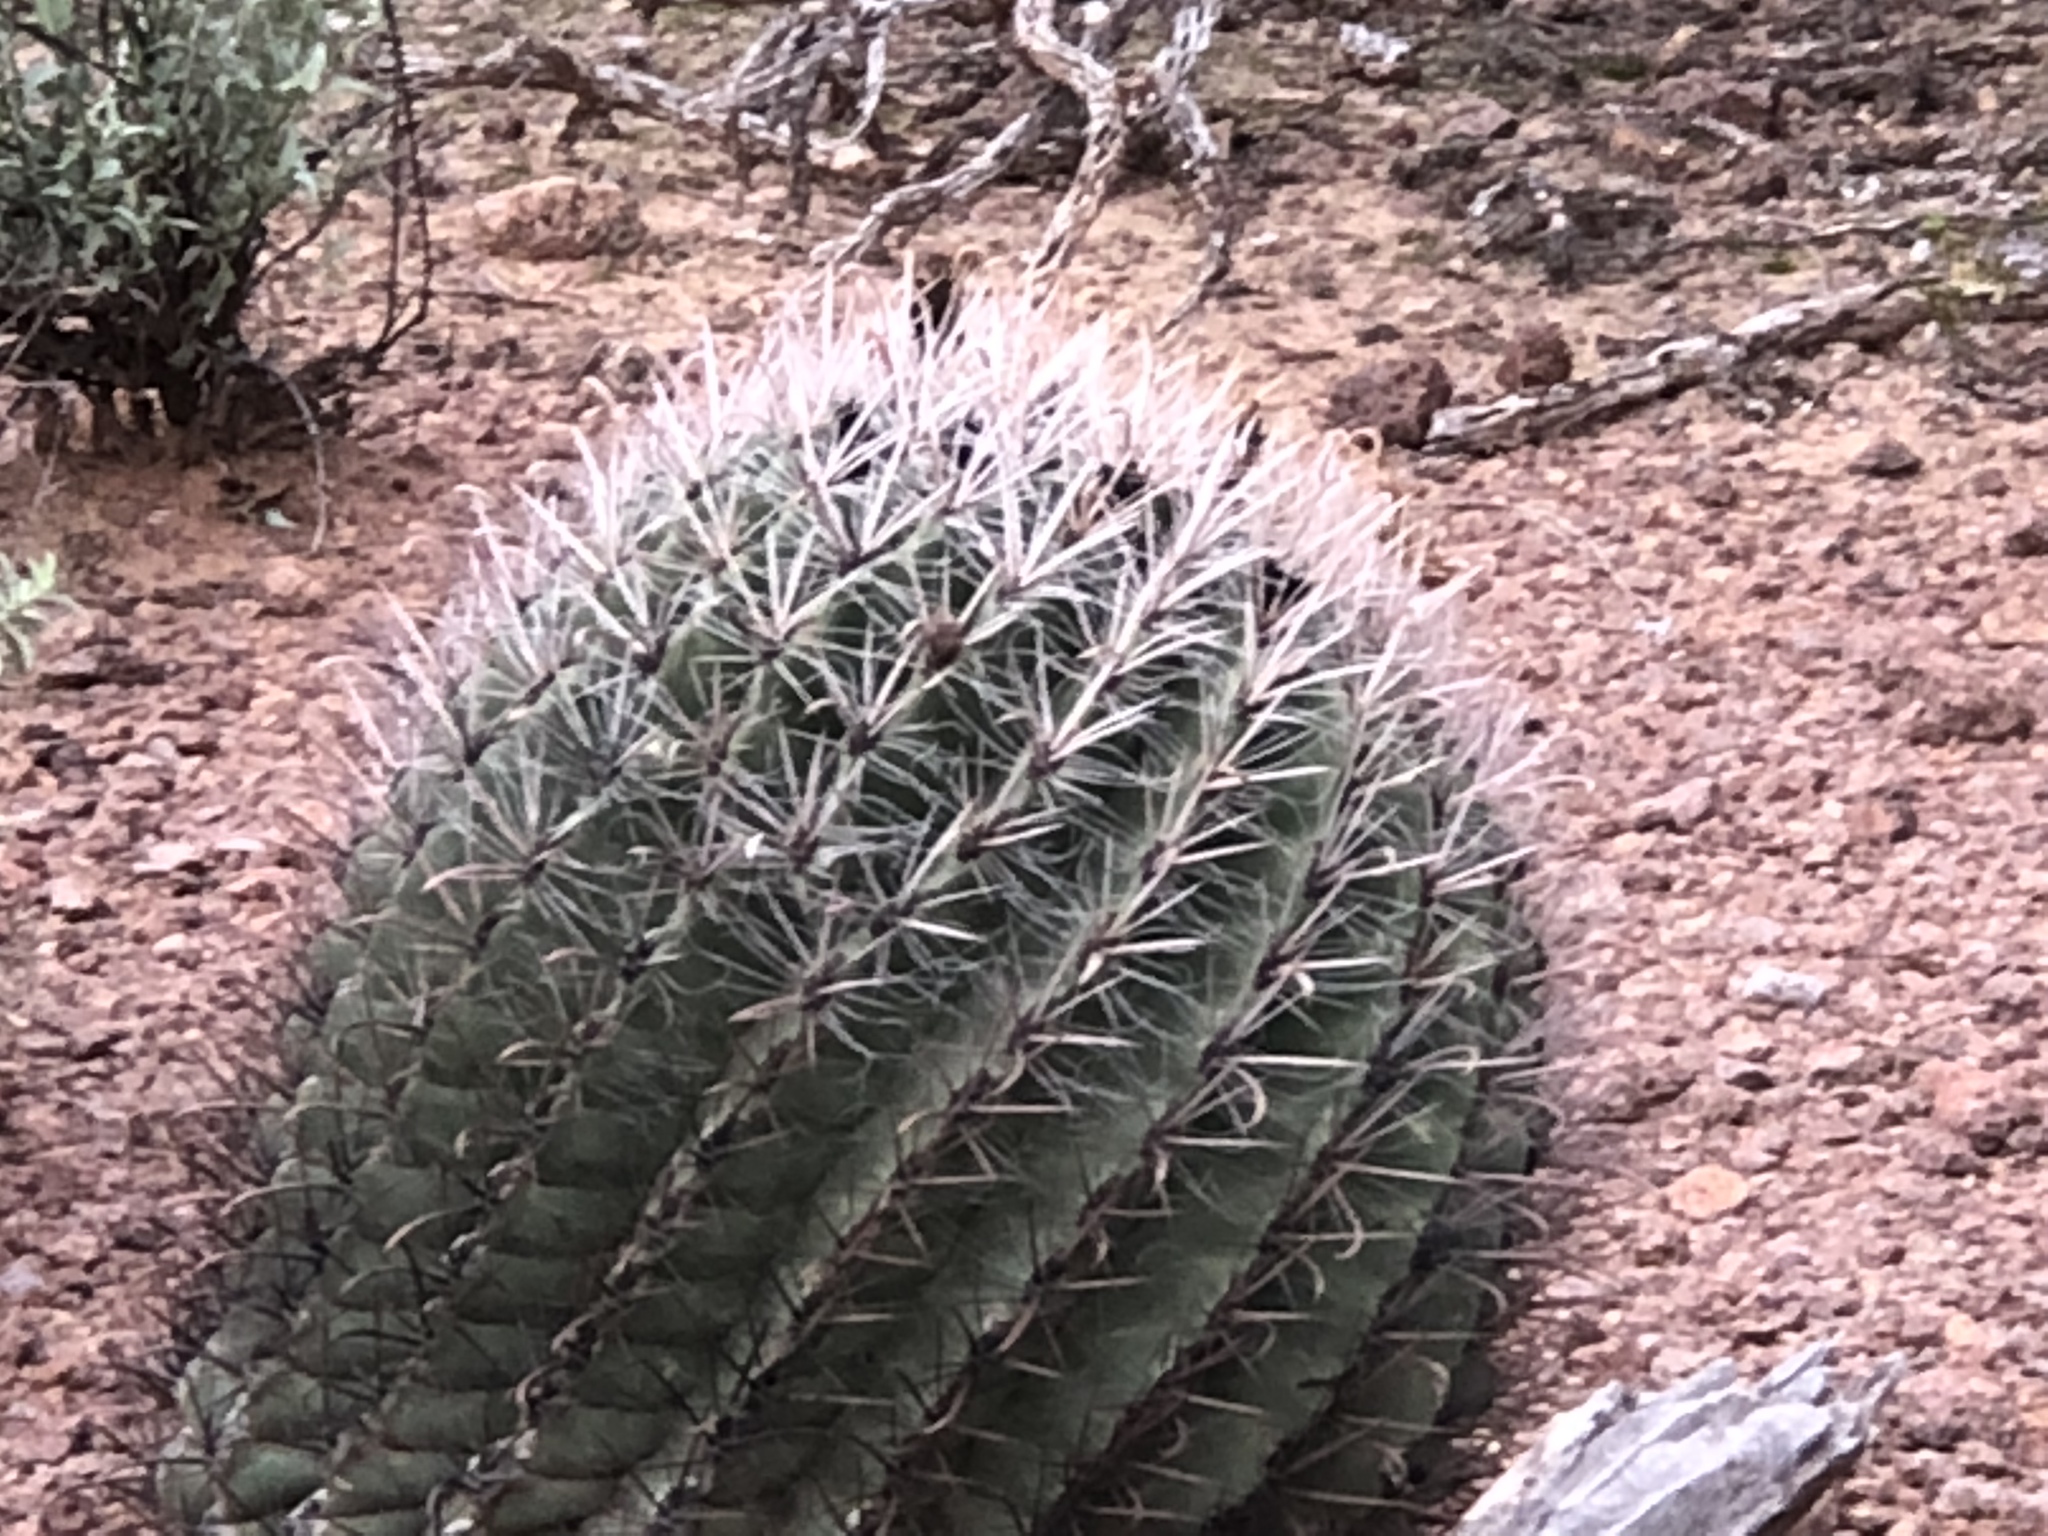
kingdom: Plantae
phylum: Tracheophyta
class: Magnoliopsida
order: Caryophyllales
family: Cactaceae
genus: Ferocactus
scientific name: Ferocactus wislizeni
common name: Candy barrel cactus
